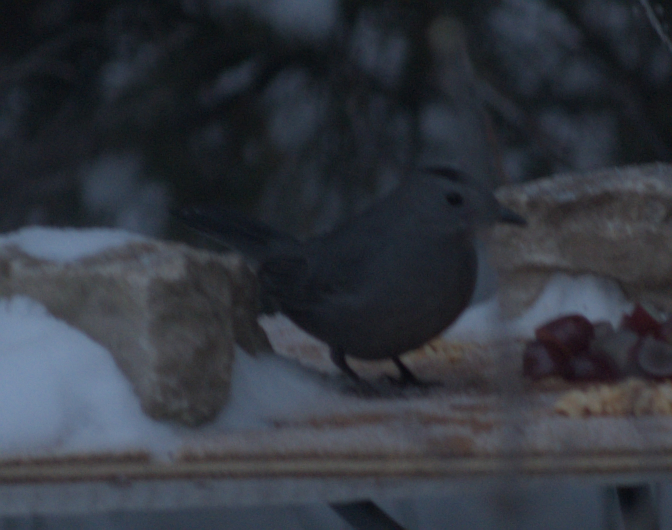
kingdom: Animalia
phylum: Chordata
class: Aves
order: Passeriformes
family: Mimidae
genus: Dumetella
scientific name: Dumetella carolinensis
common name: Gray catbird
